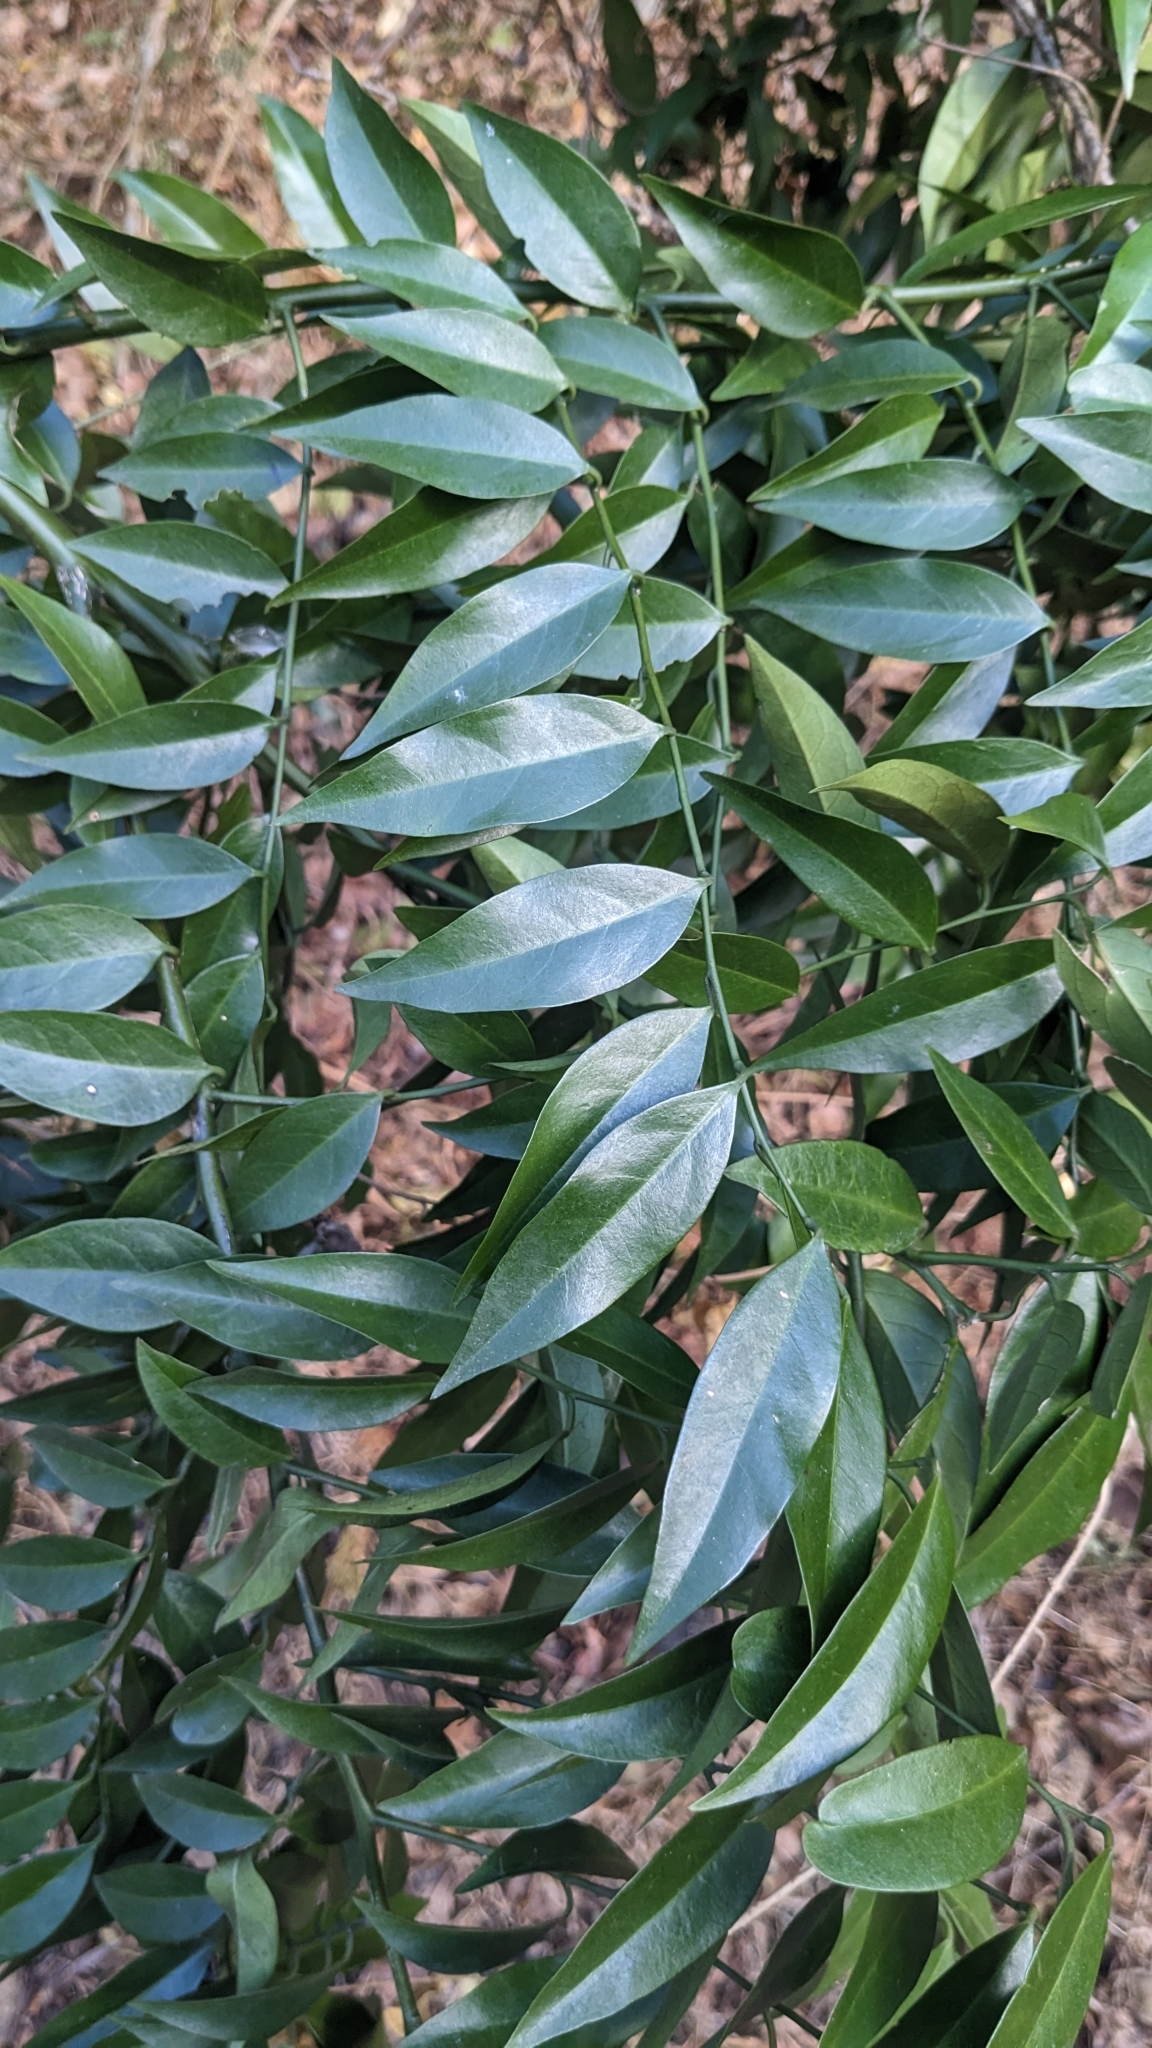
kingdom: Plantae
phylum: Tracheophyta
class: Magnoliopsida
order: Brassicales
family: Capparaceae
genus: Capparis
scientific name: Capparis sabiifolia
